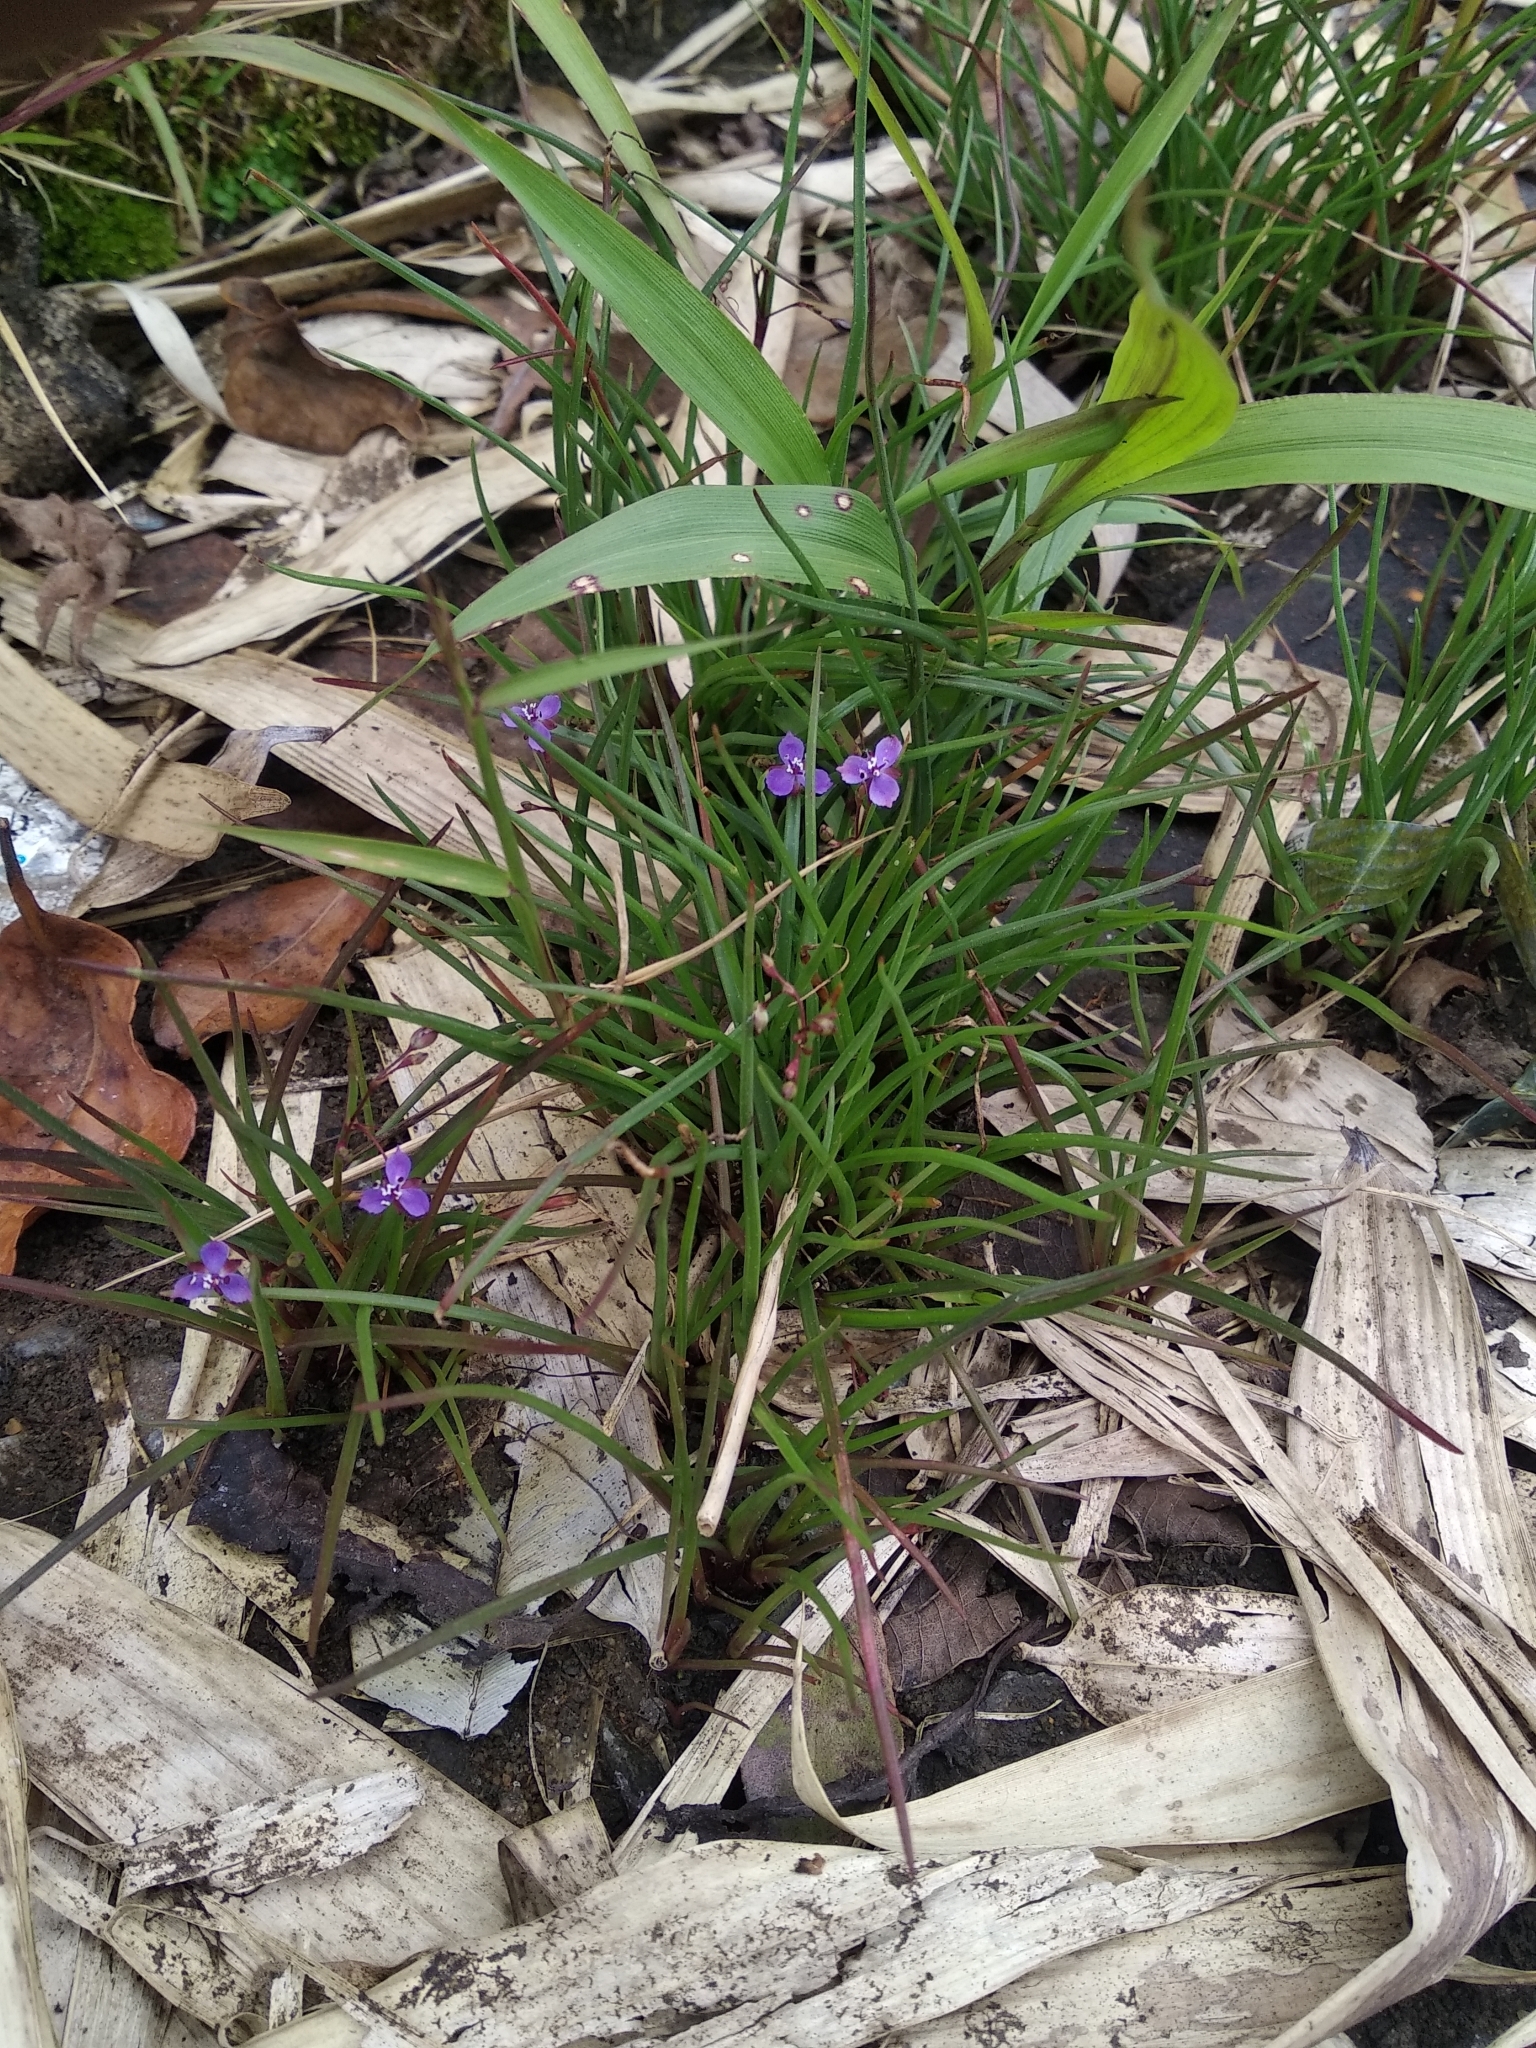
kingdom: Plantae
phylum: Tracheophyta
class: Liliopsida
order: Commelinales
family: Commelinaceae
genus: Murdannia
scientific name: Murdannia semiteres
